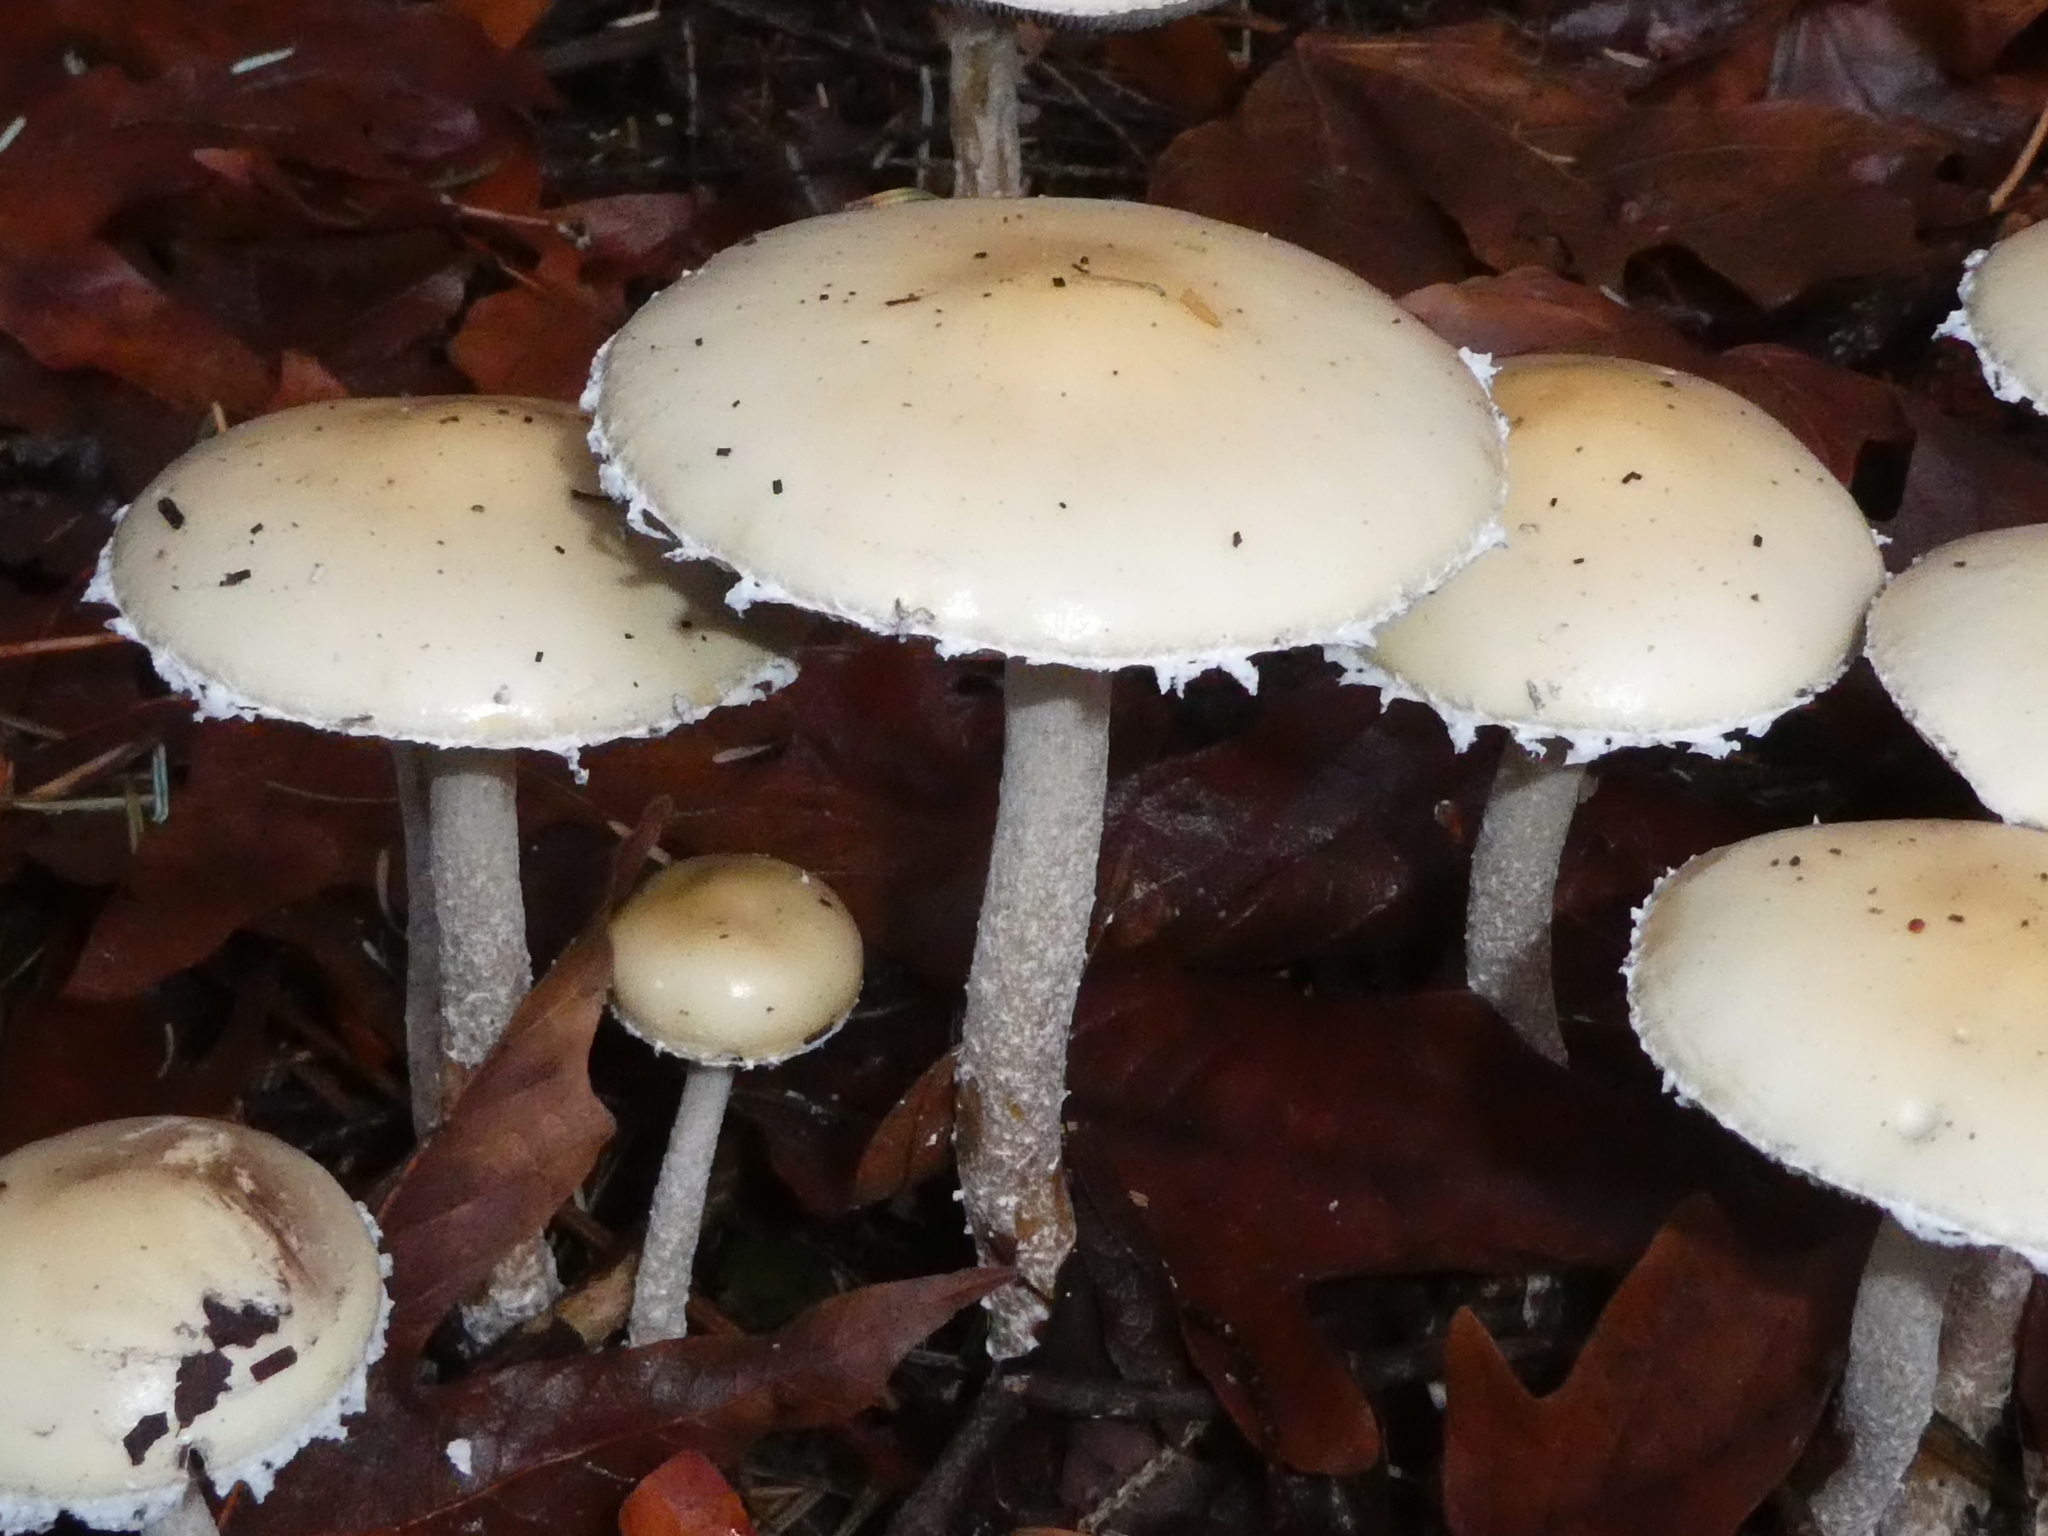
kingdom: Fungi
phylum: Basidiomycota
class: Agaricomycetes
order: Agaricales
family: Strophariaceae
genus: Stropharia
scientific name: Stropharia ambigua
